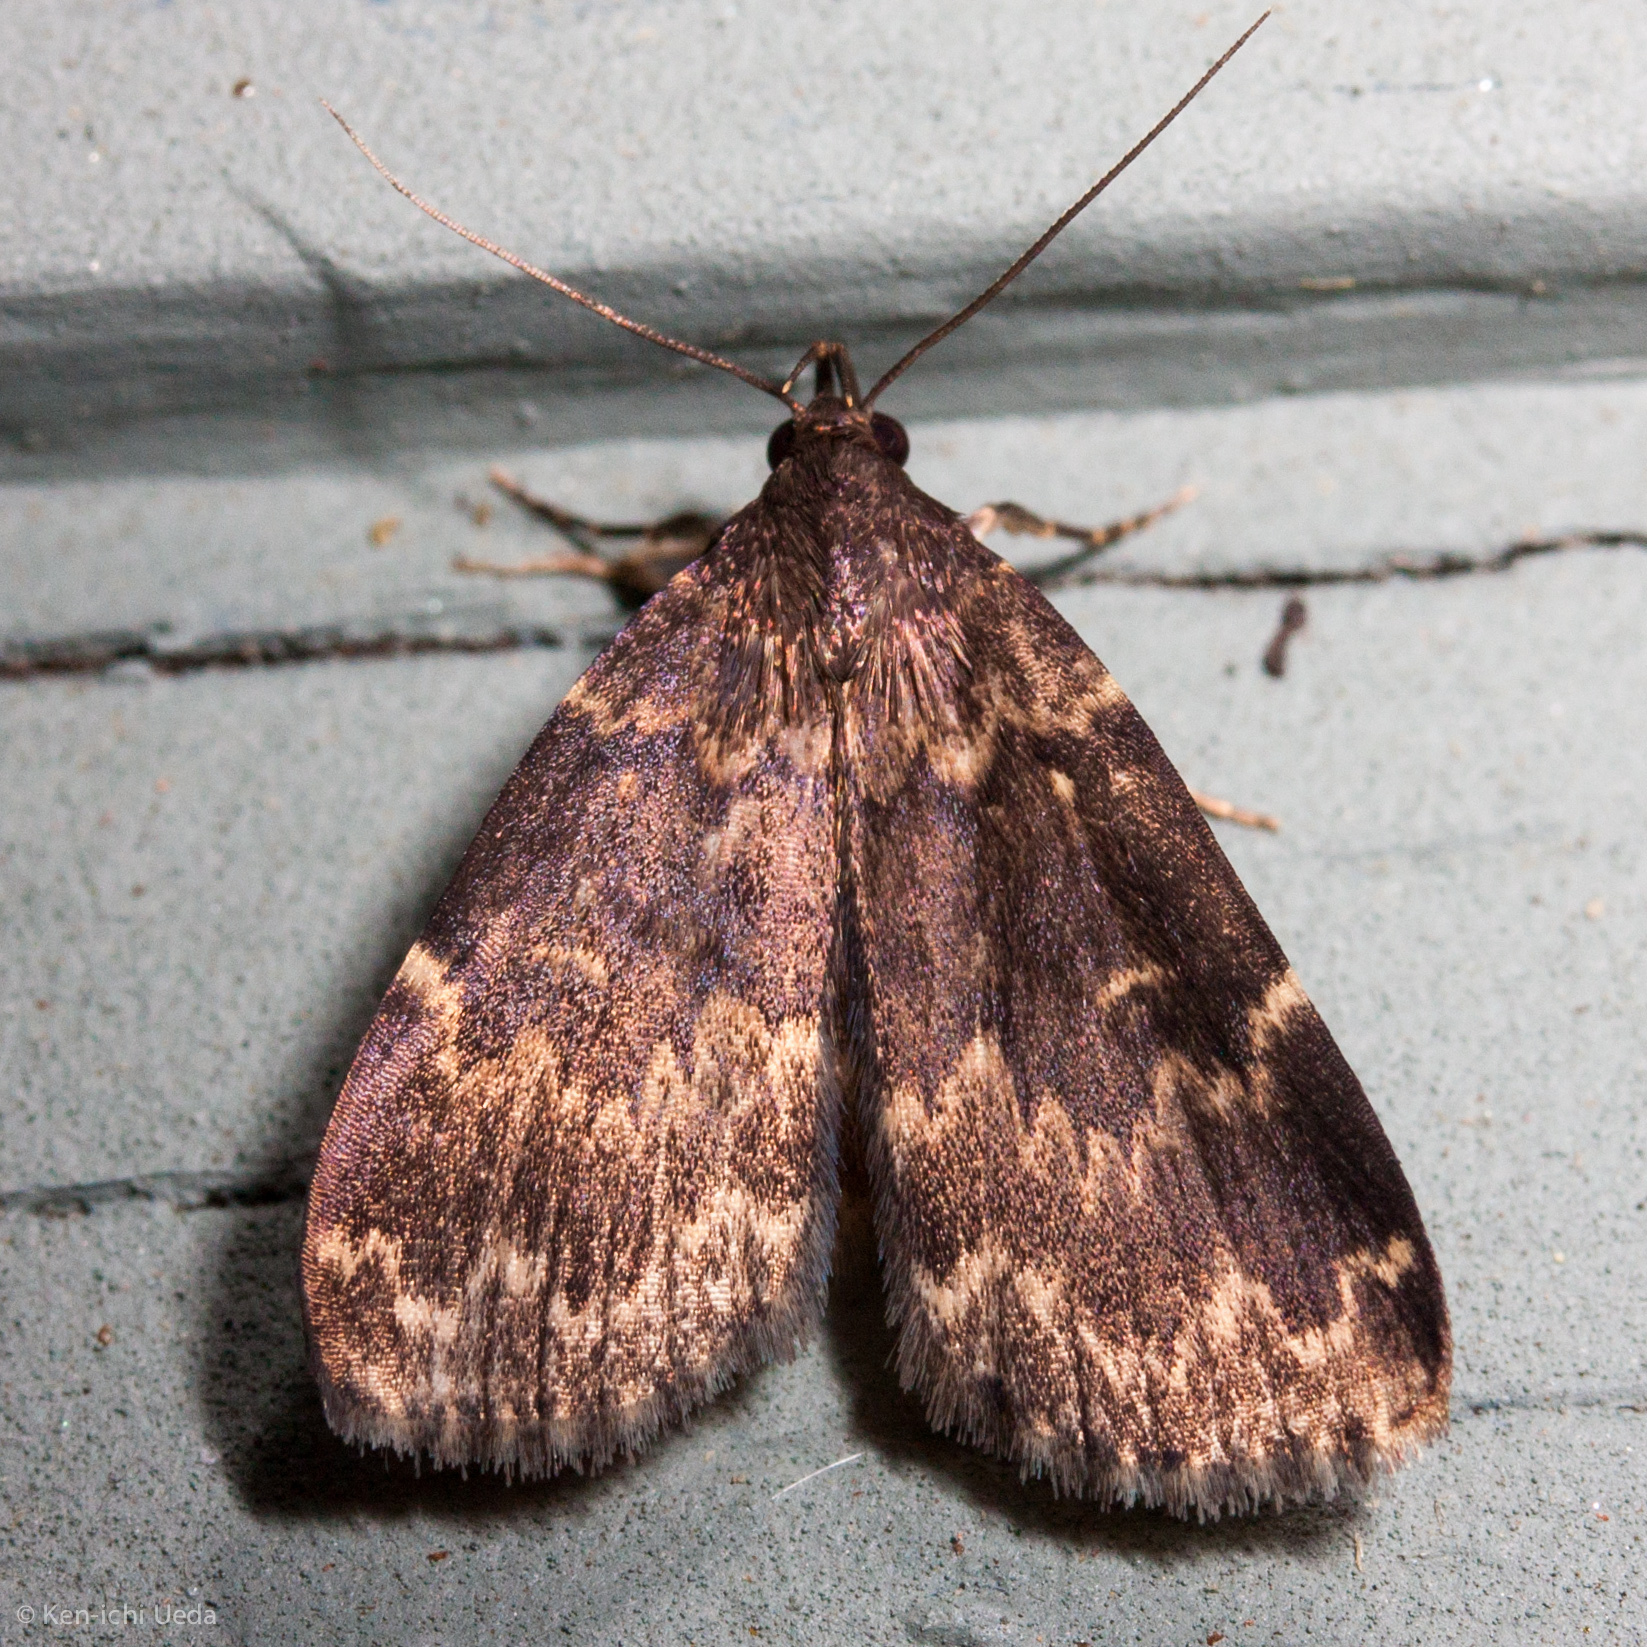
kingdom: Animalia
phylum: Arthropoda
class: Insecta
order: Lepidoptera
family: Erebidae
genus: Idia
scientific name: Idia lubricalis
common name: Twin-striped tabby
